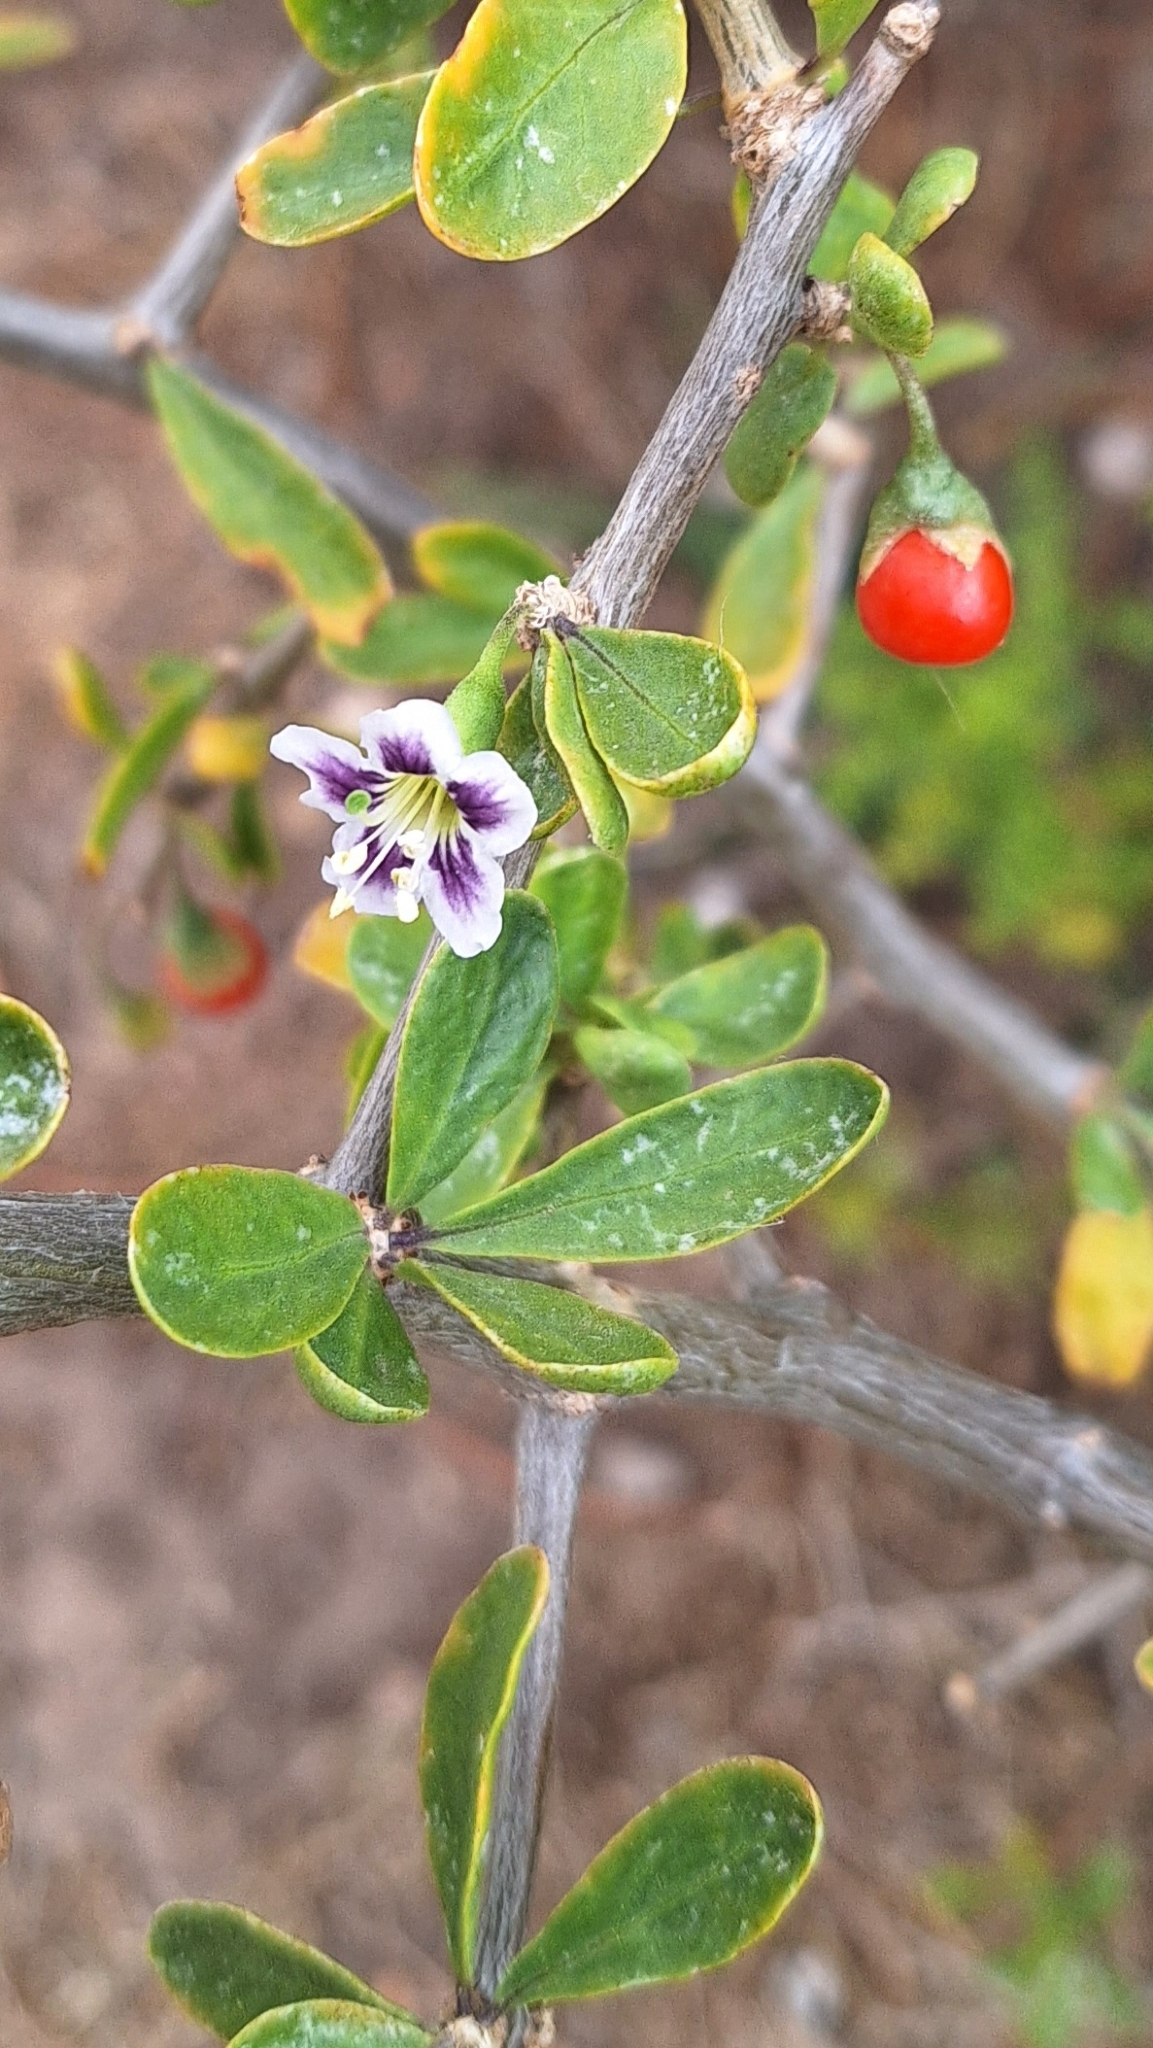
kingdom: Plantae
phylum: Tracheophyta
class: Magnoliopsida
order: Solanales
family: Solanaceae
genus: Lycium
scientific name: Lycium ferocissimum
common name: African boxthorn
